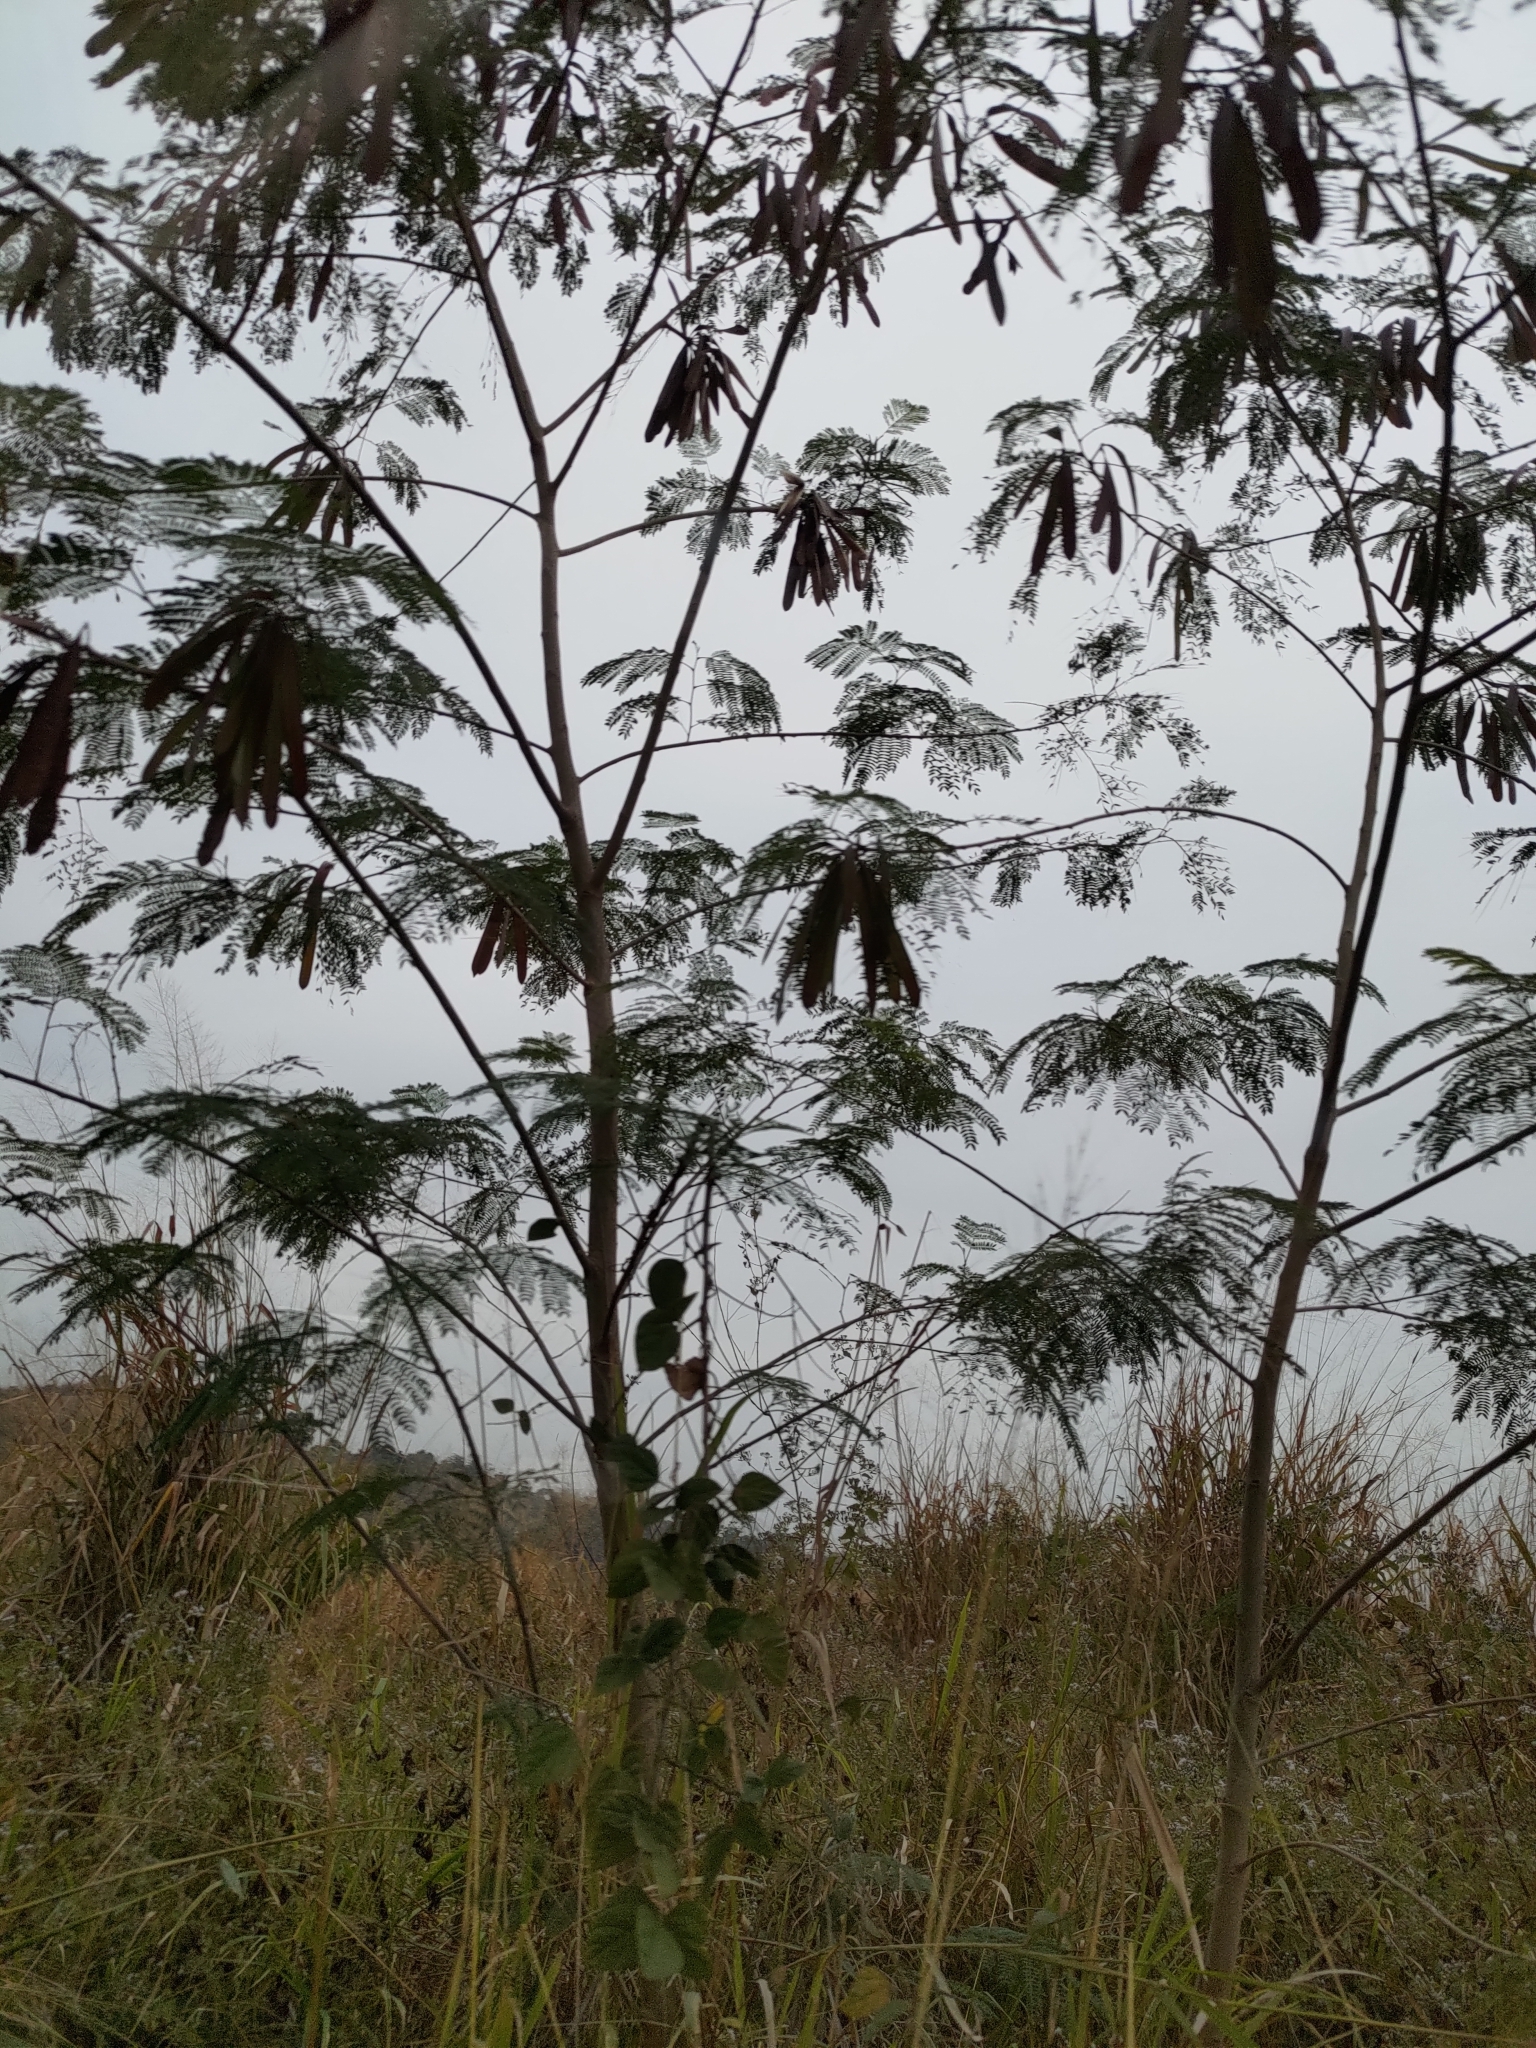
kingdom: Plantae
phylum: Tracheophyta
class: Magnoliopsida
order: Fabales
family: Fabaceae
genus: Leucaena
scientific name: Leucaena leucocephala
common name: White leadtree
